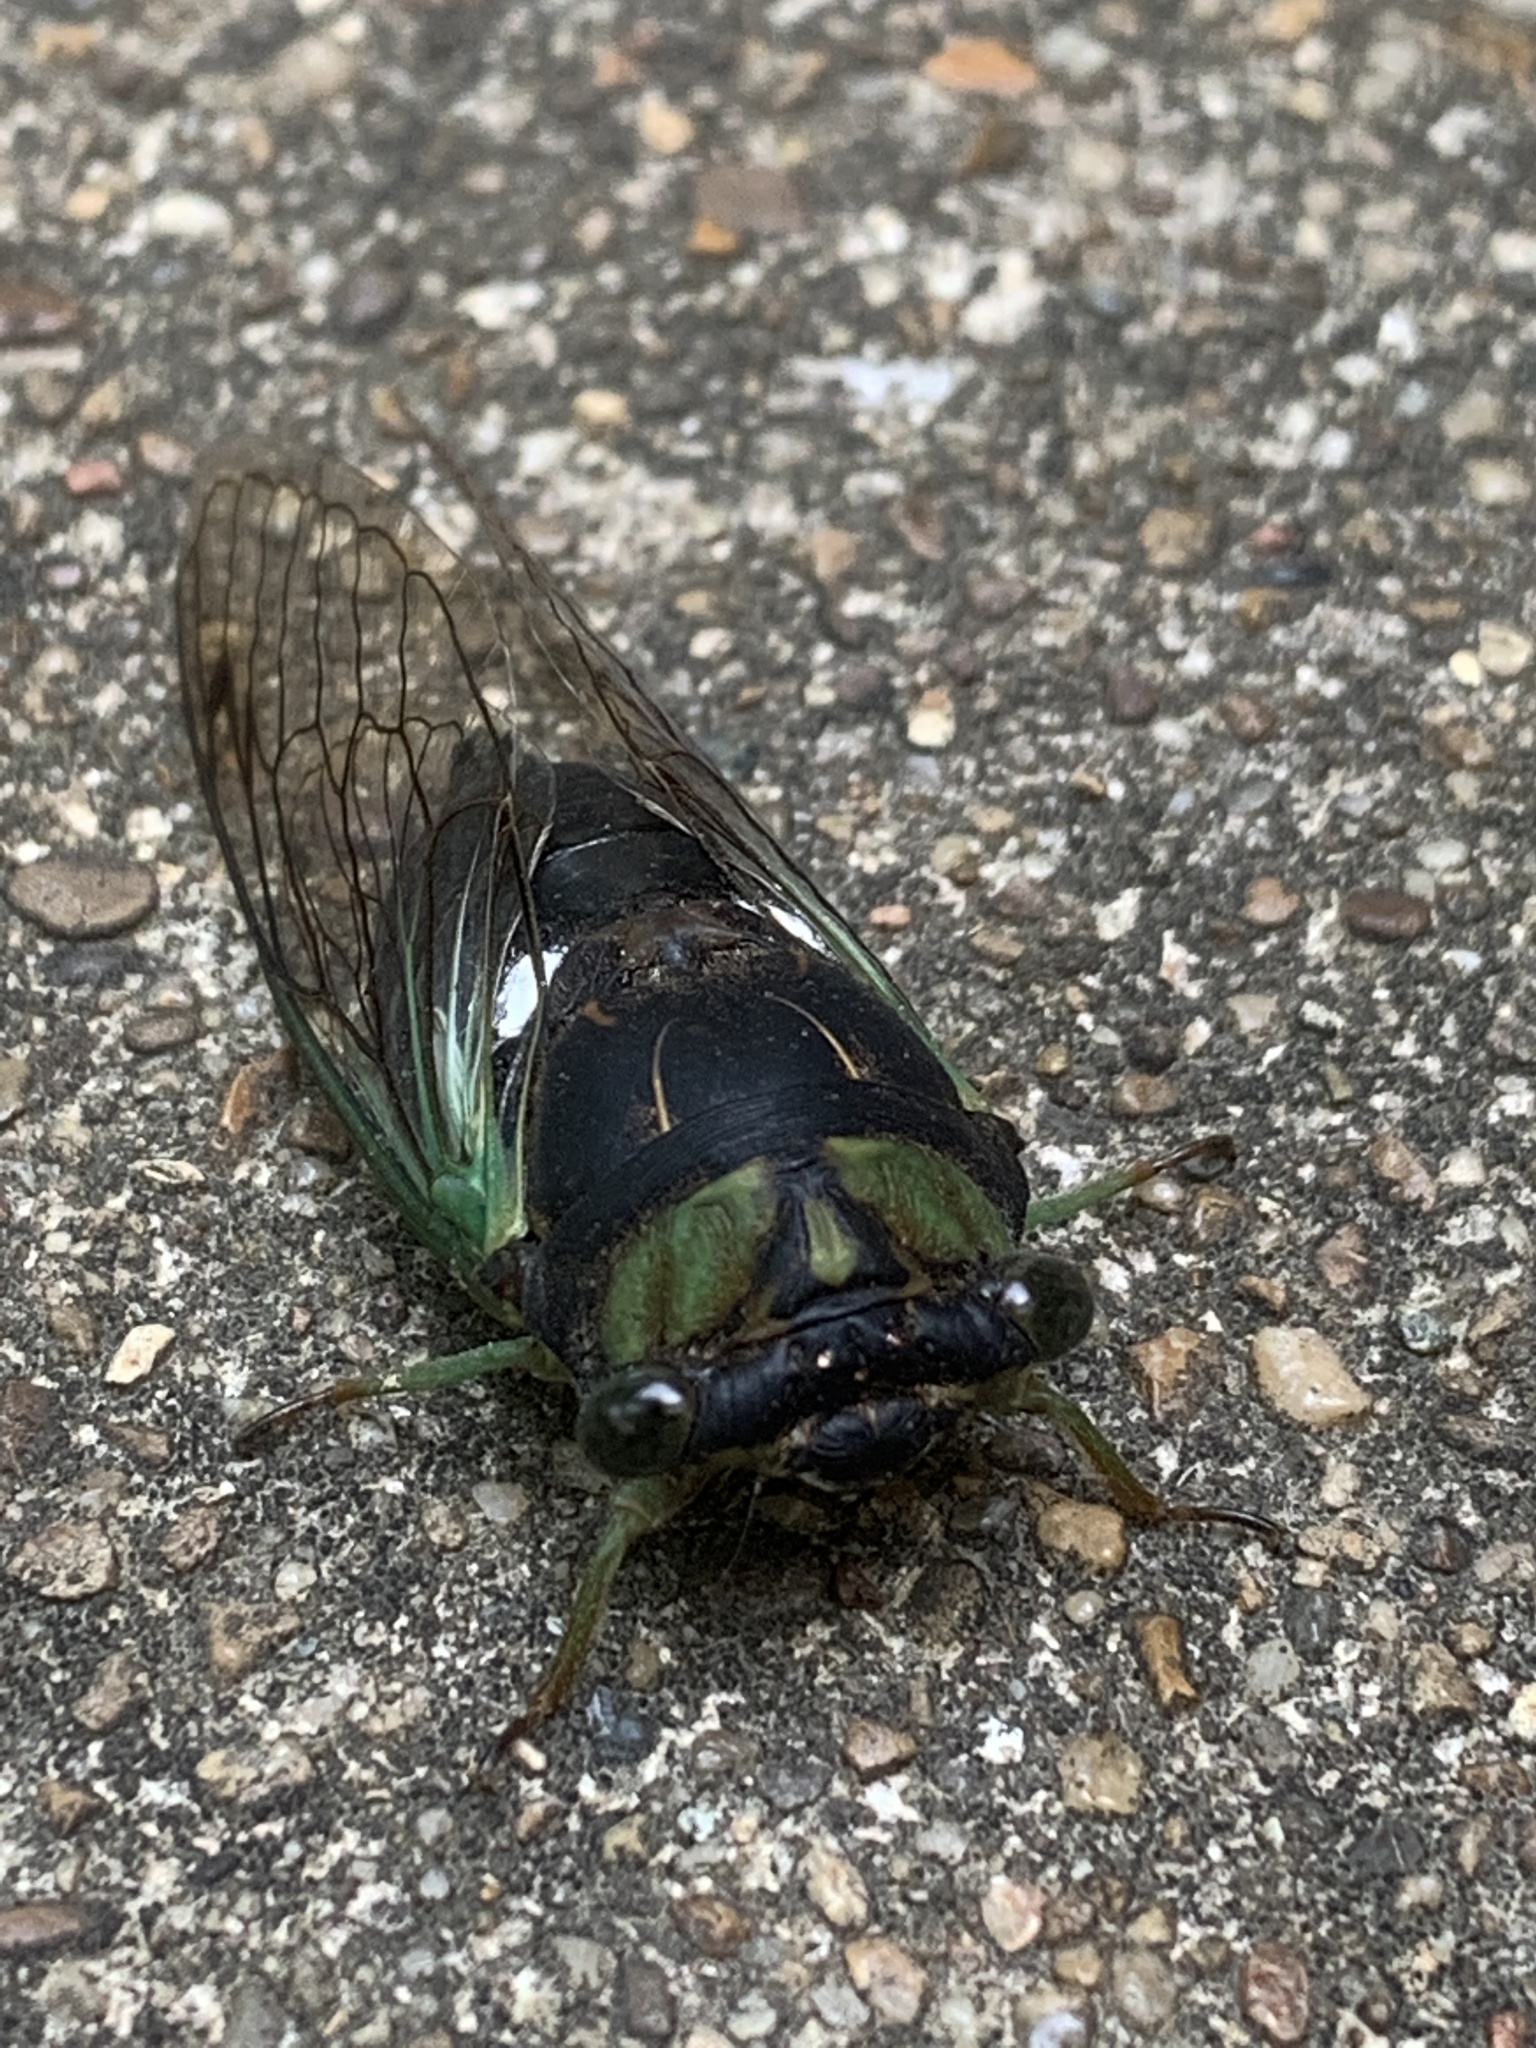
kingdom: Animalia
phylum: Arthropoda
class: Insecta
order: Hemiptera
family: Cicadidae
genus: Neotibicen
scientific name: Neotibicen tibicen
